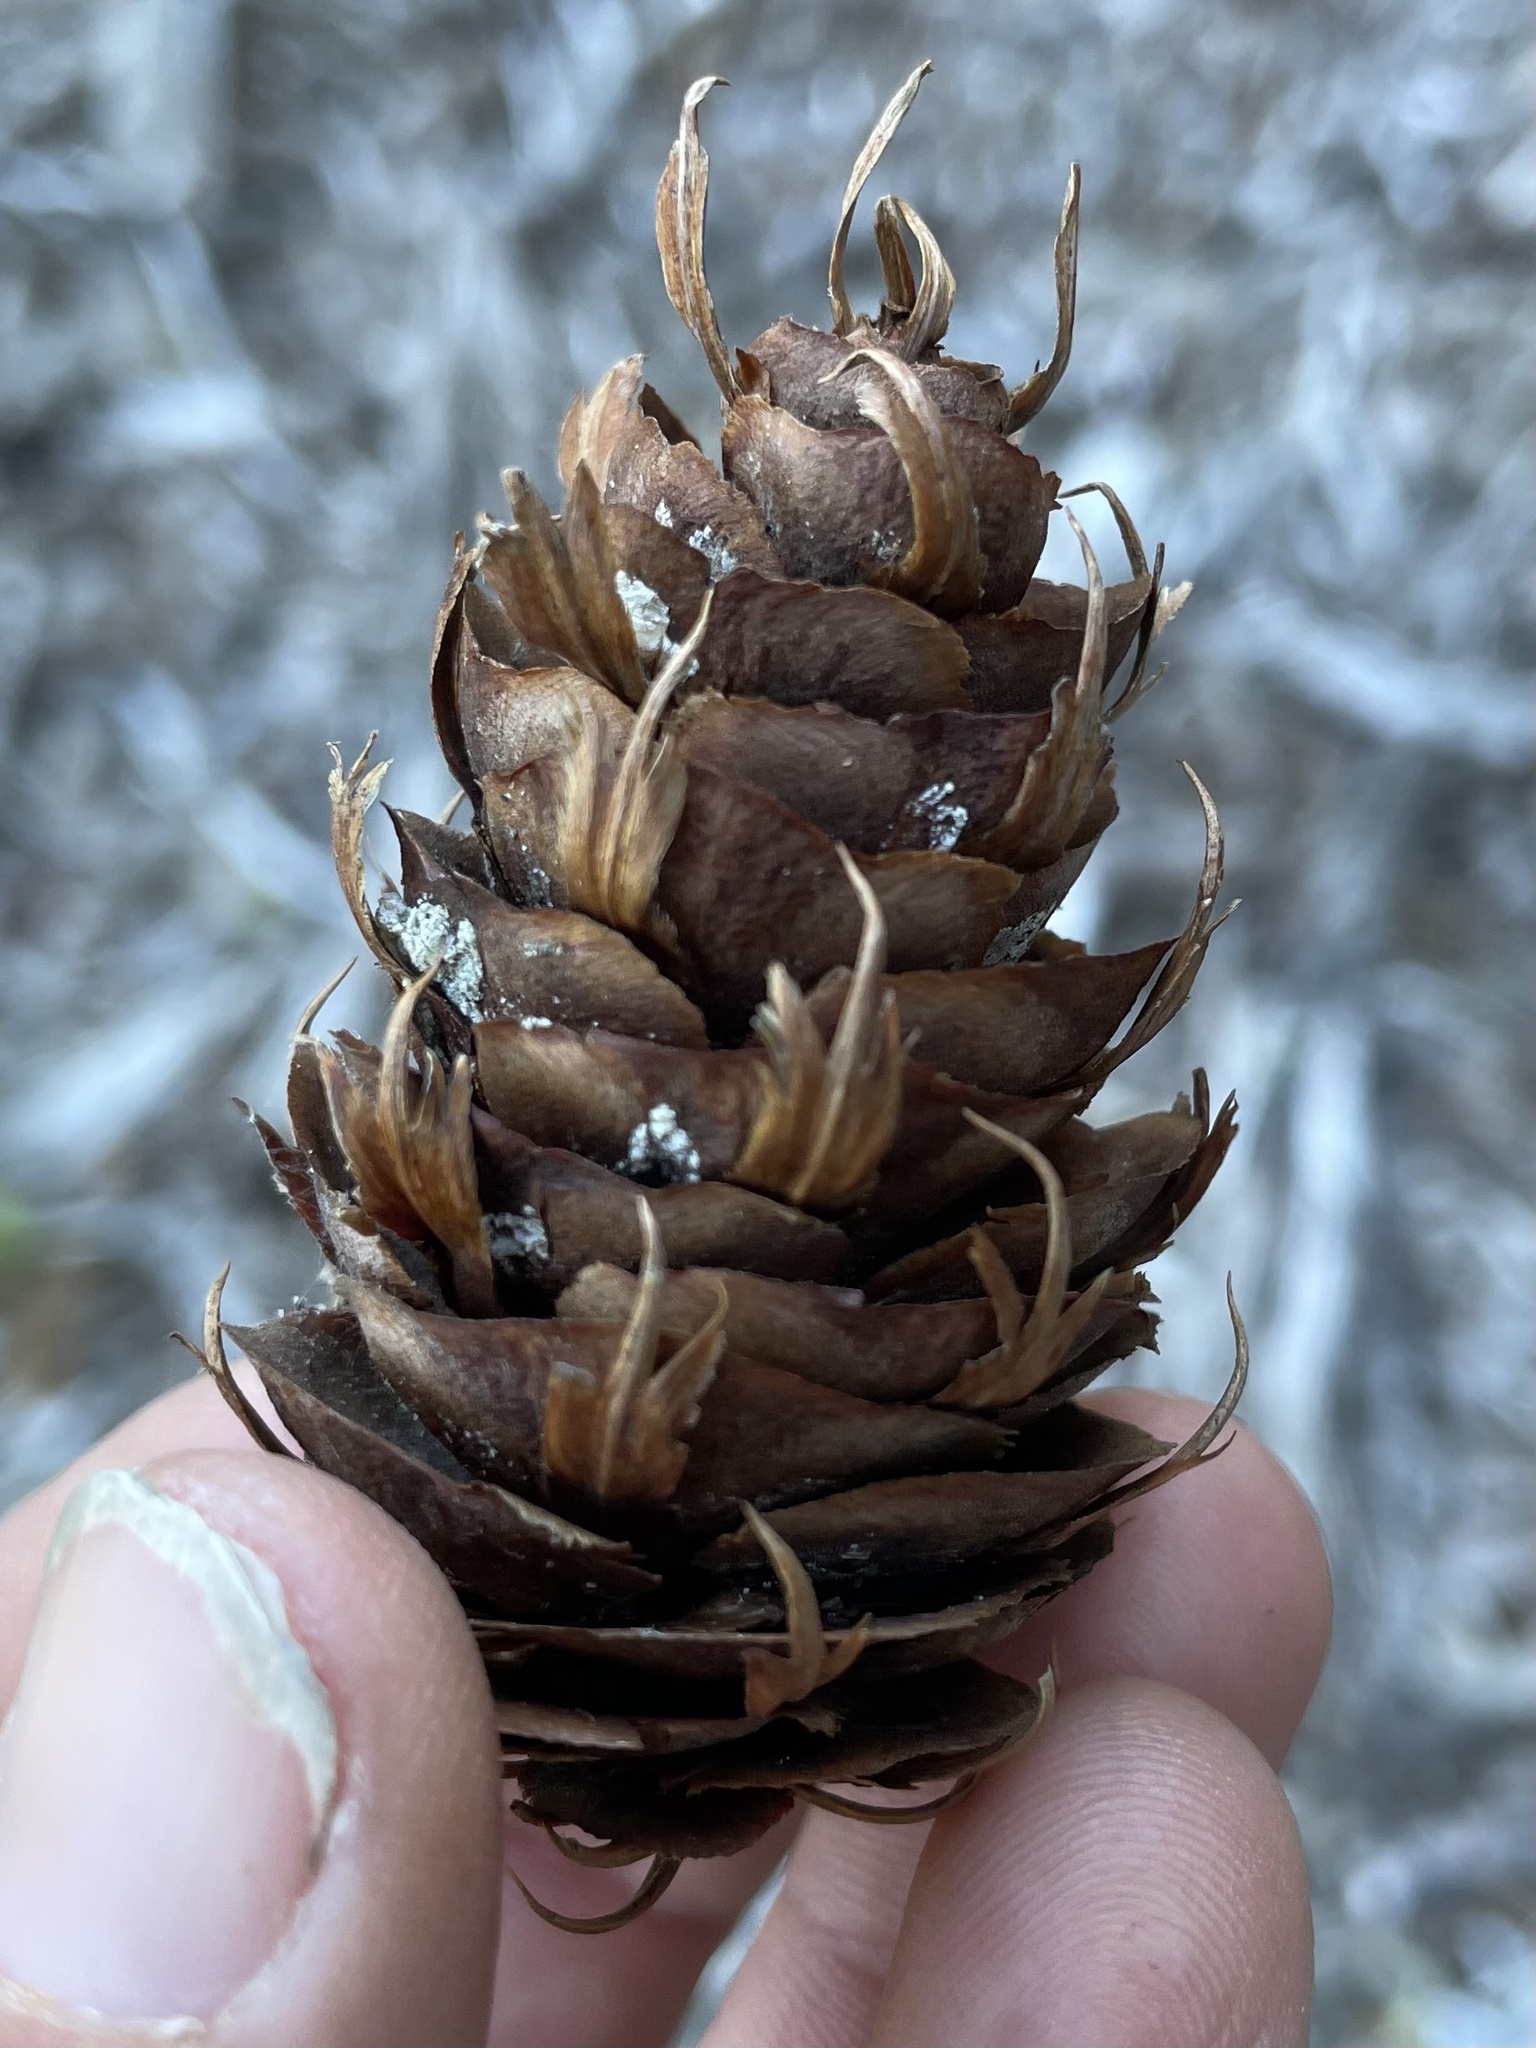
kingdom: Plantae
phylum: Tracheophyta
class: Pinopsida
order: Pinales
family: Pinaceae
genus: Pseudotsuga
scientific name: Pseudotsuga menziesii
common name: Douglas fir
